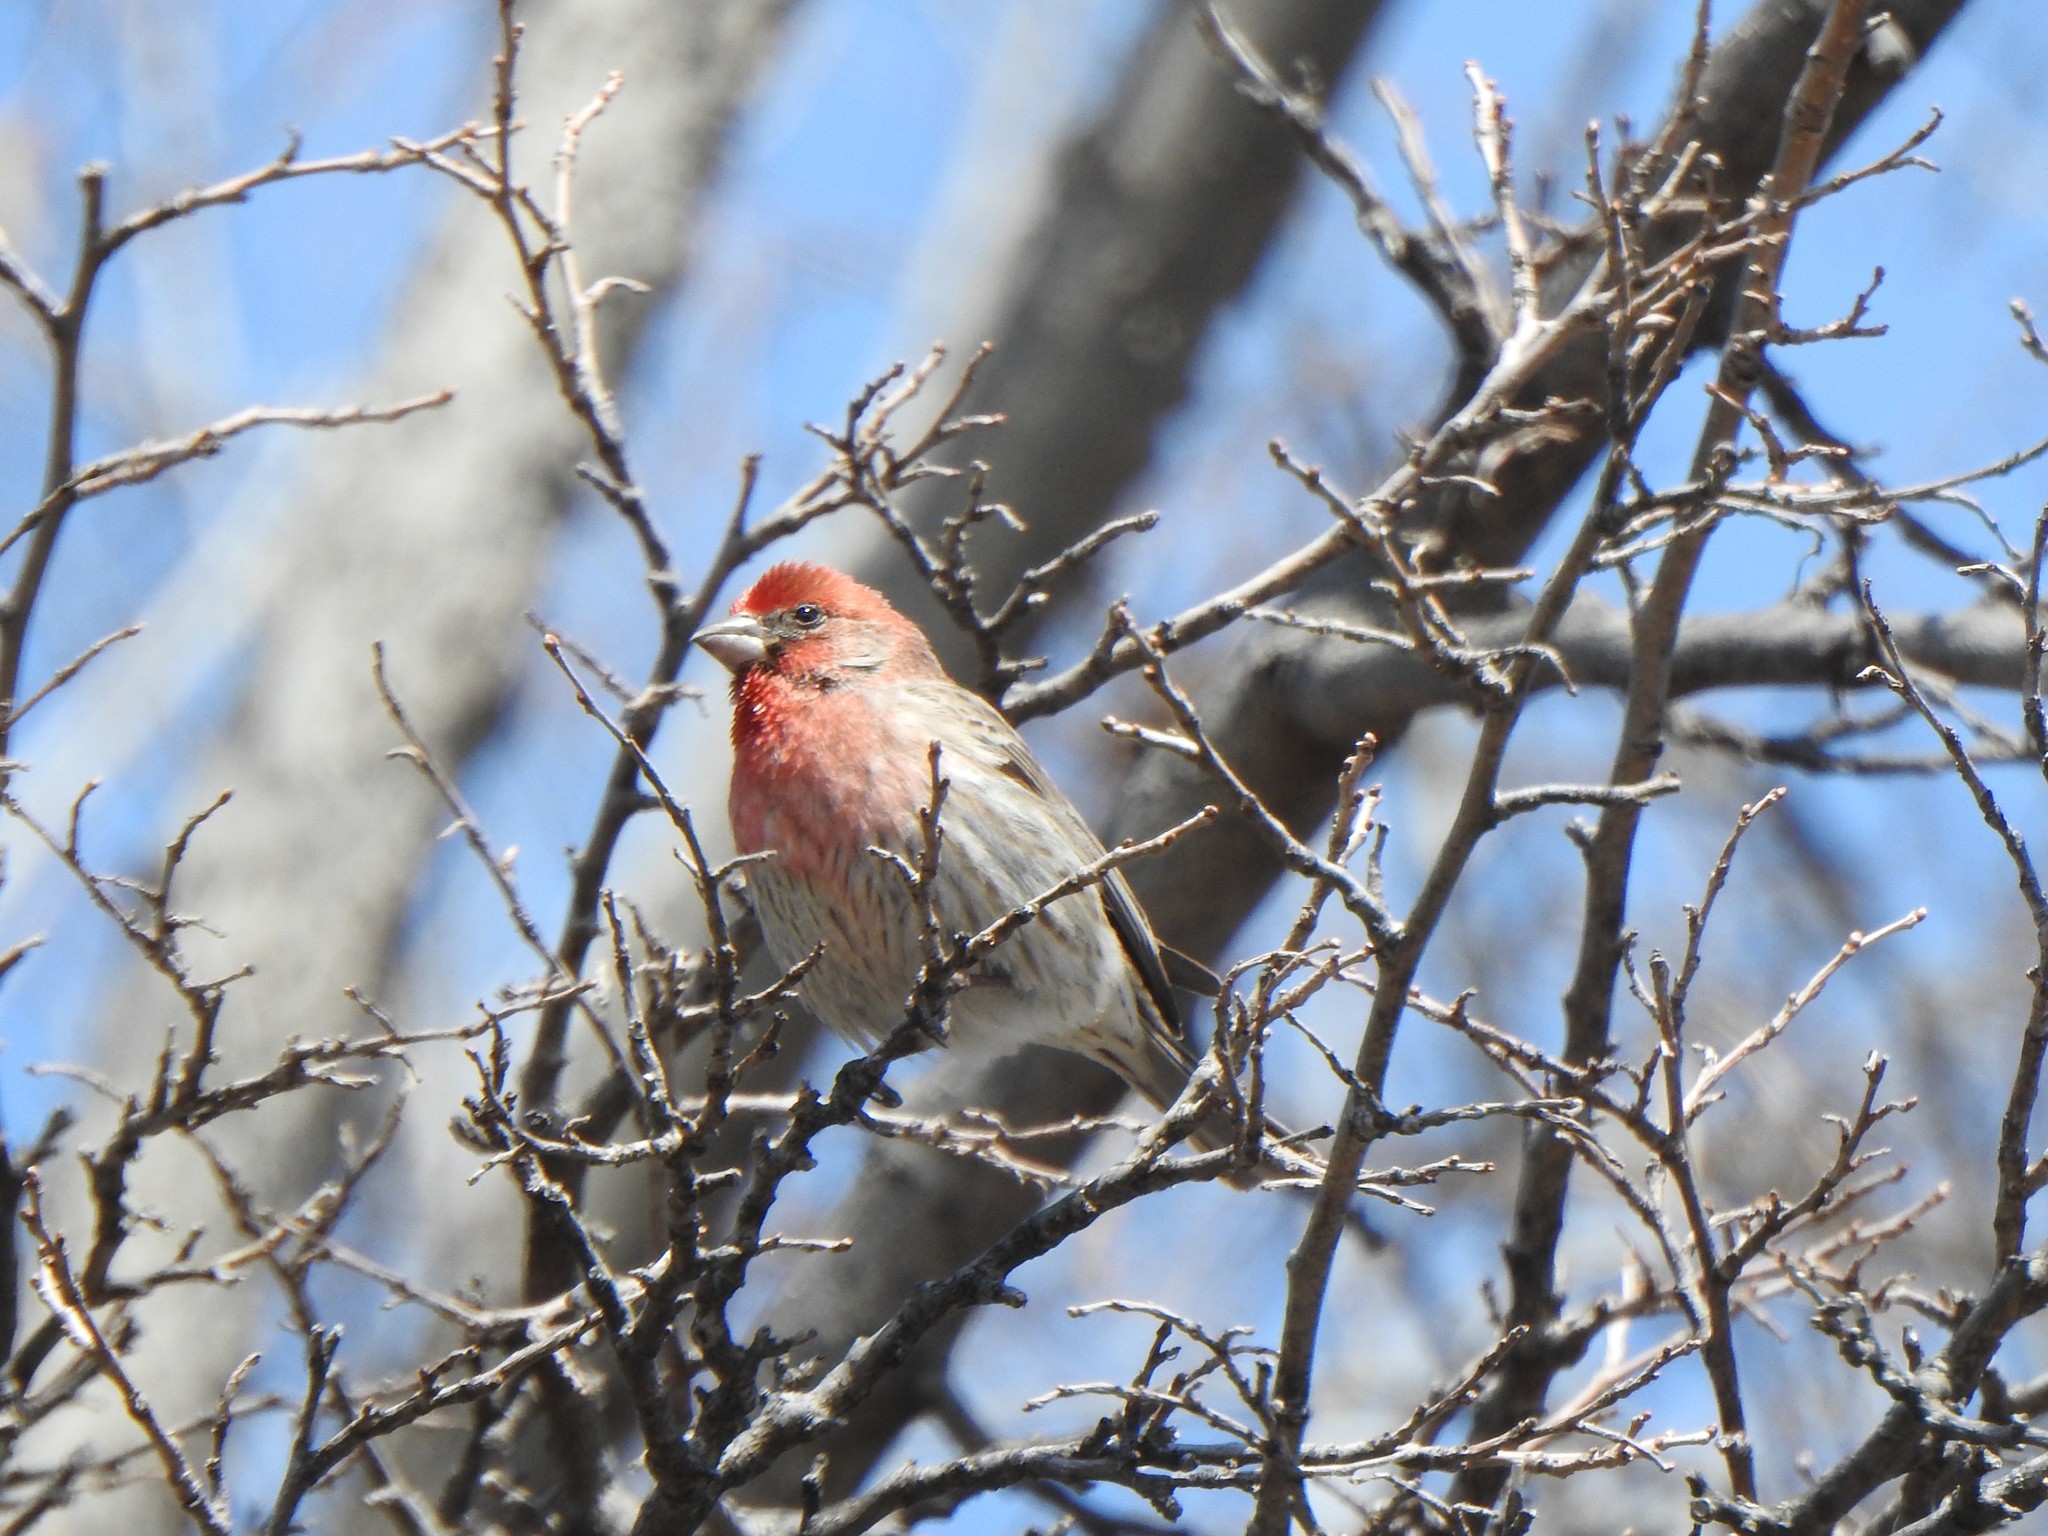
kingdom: Animalia
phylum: Chordata
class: Aves
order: Passeriformes
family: Fringillidae
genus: Haemorhous
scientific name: Haemorhous mexicanus
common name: House finch
